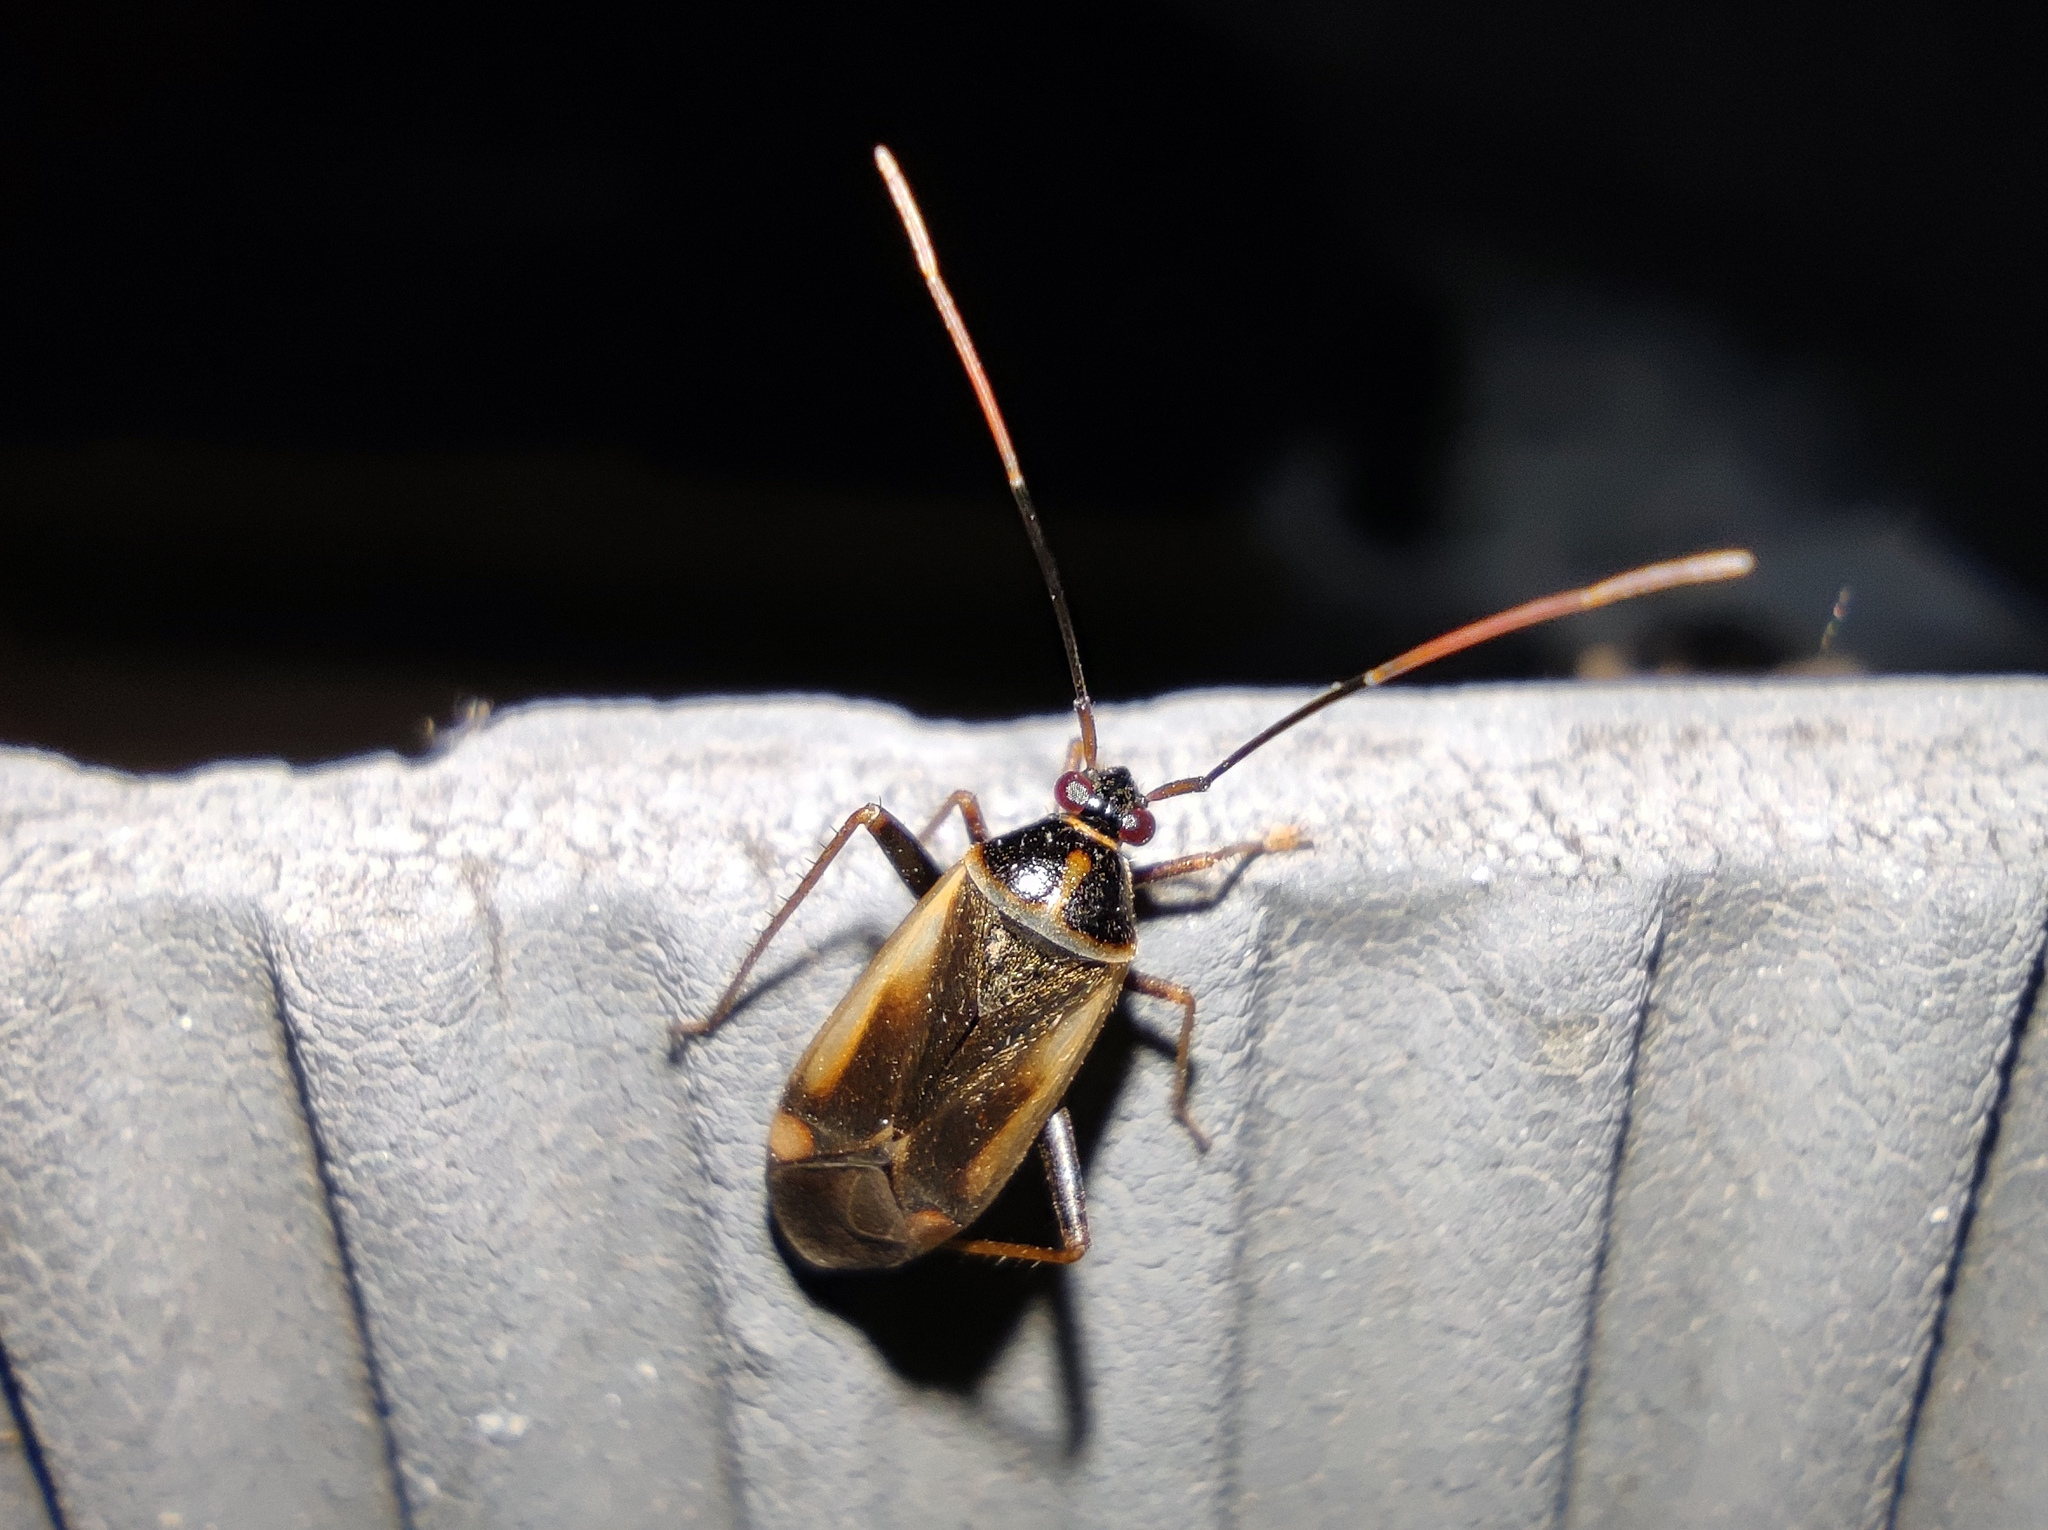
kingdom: Animalia
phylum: Arthropoda
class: Insecta
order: Hemiptera
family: Miridae
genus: Adelphocoris
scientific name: Adelphocoris seticornis
